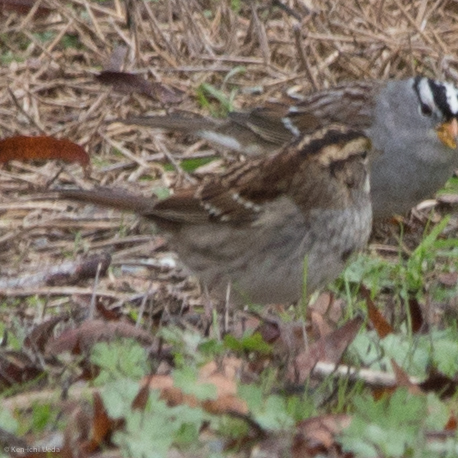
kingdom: Animalia
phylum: Chordata
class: Aves
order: Passeriformes
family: Passerellidae
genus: Zonotrichia
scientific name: Zonotrichia albicollis
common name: White-throated sparrow
